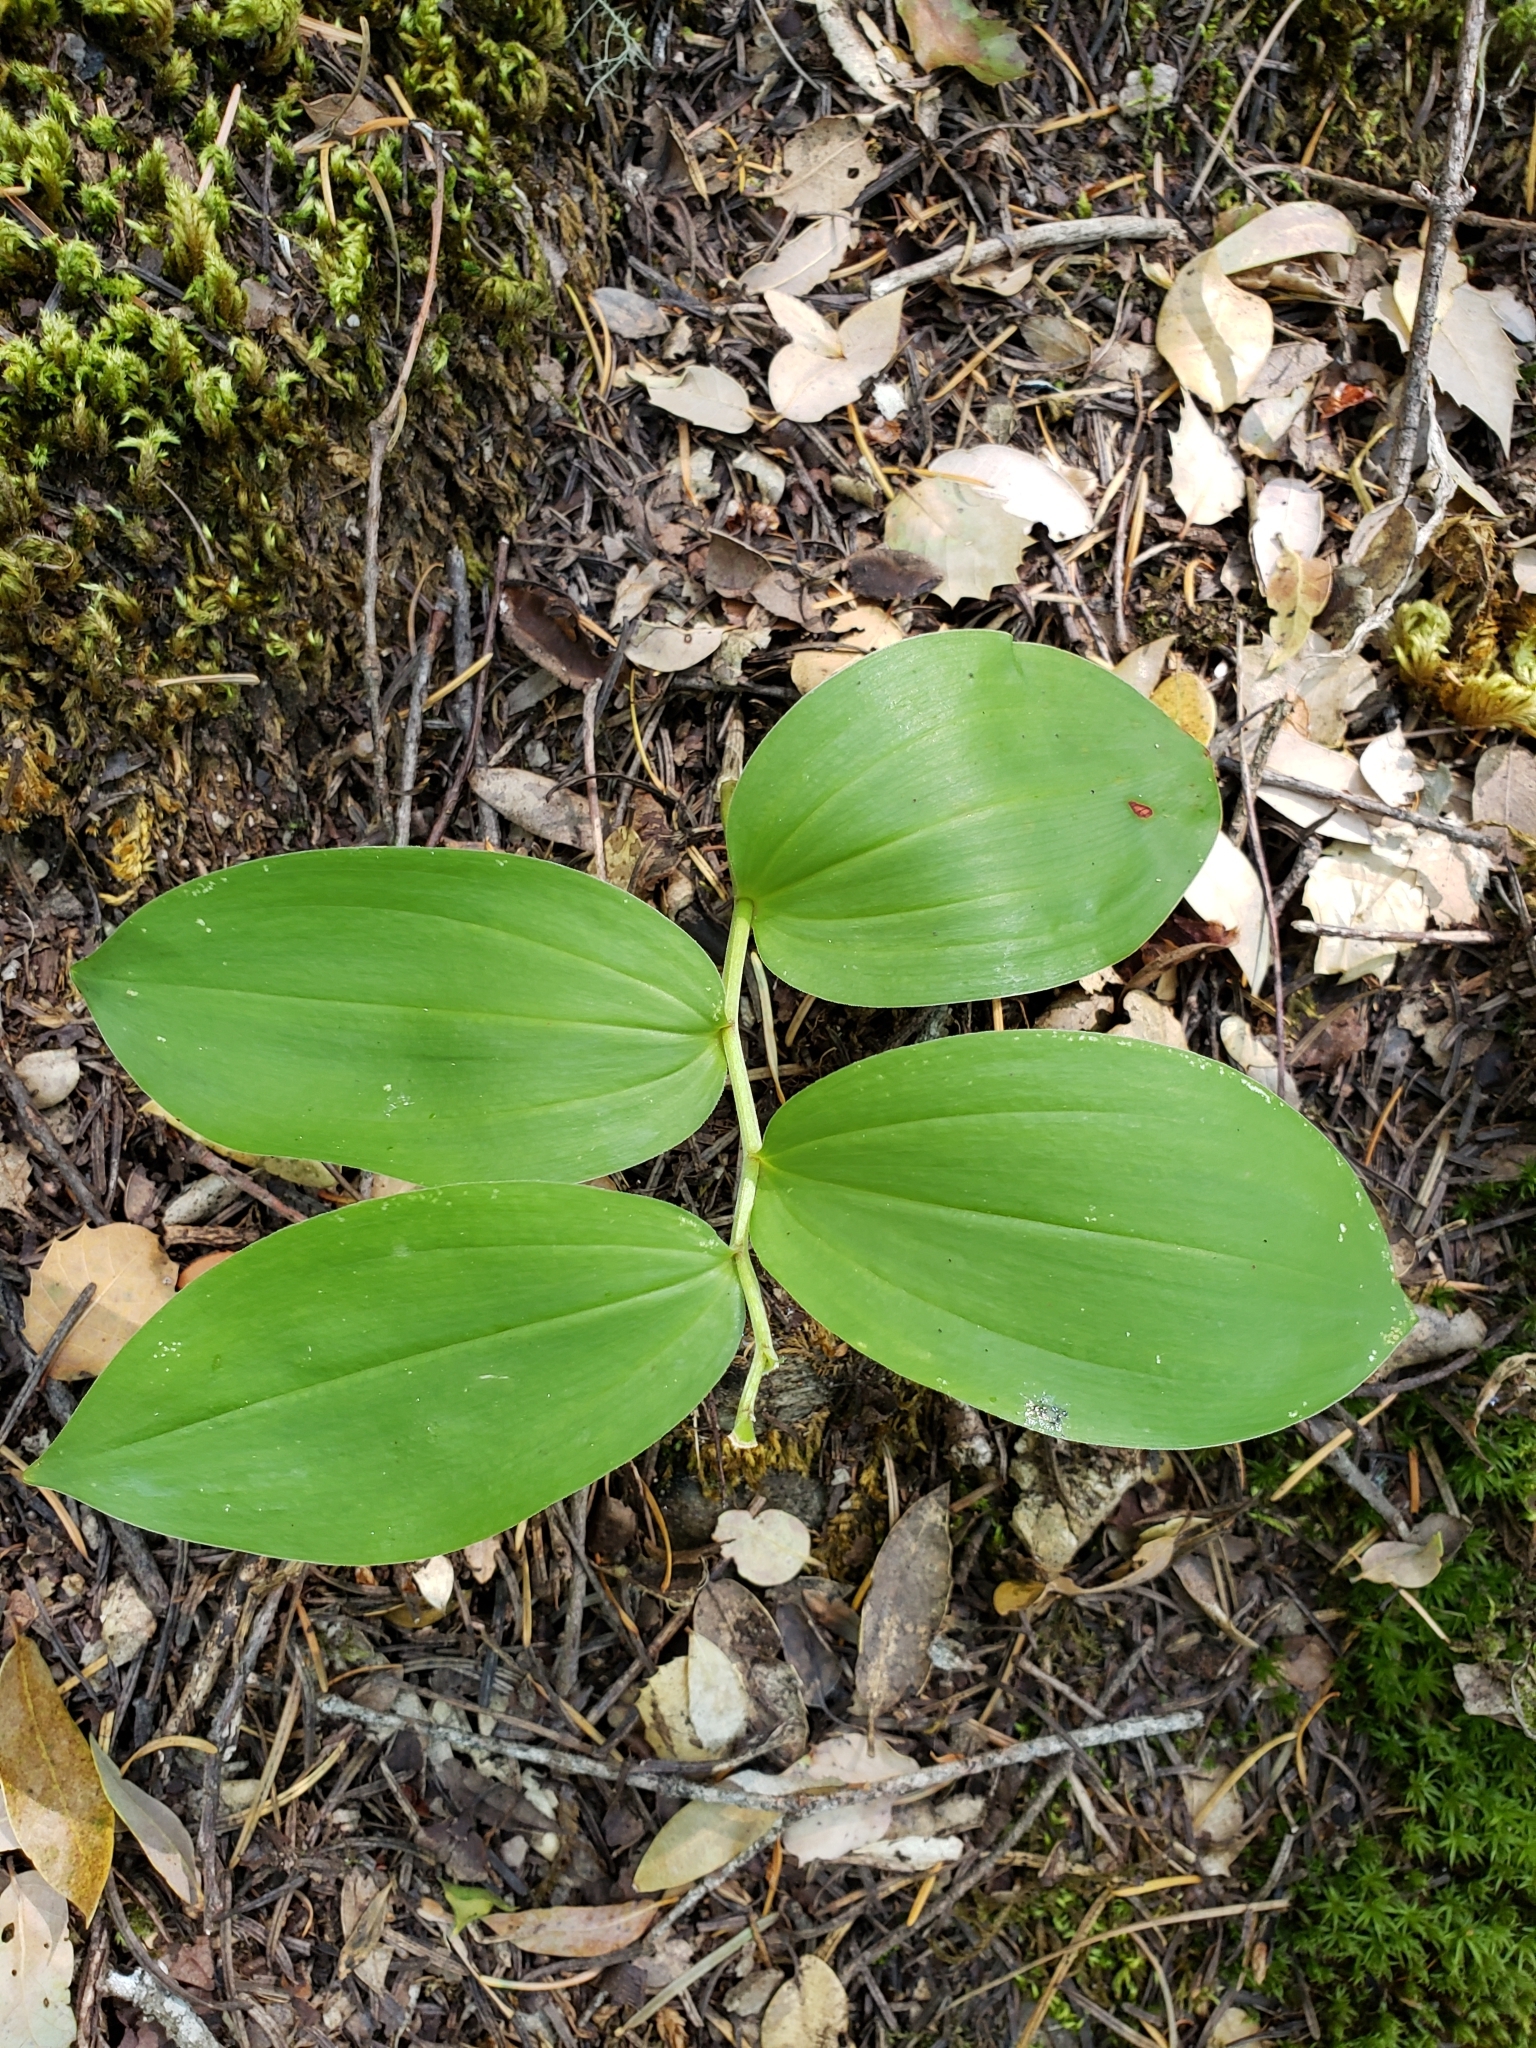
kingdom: Plantae
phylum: Tracheophyta
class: Liliopsida
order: Asparagales
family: Asparagaceae
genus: Maianthemum
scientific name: Maianthemum racemosum
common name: False spikenard
